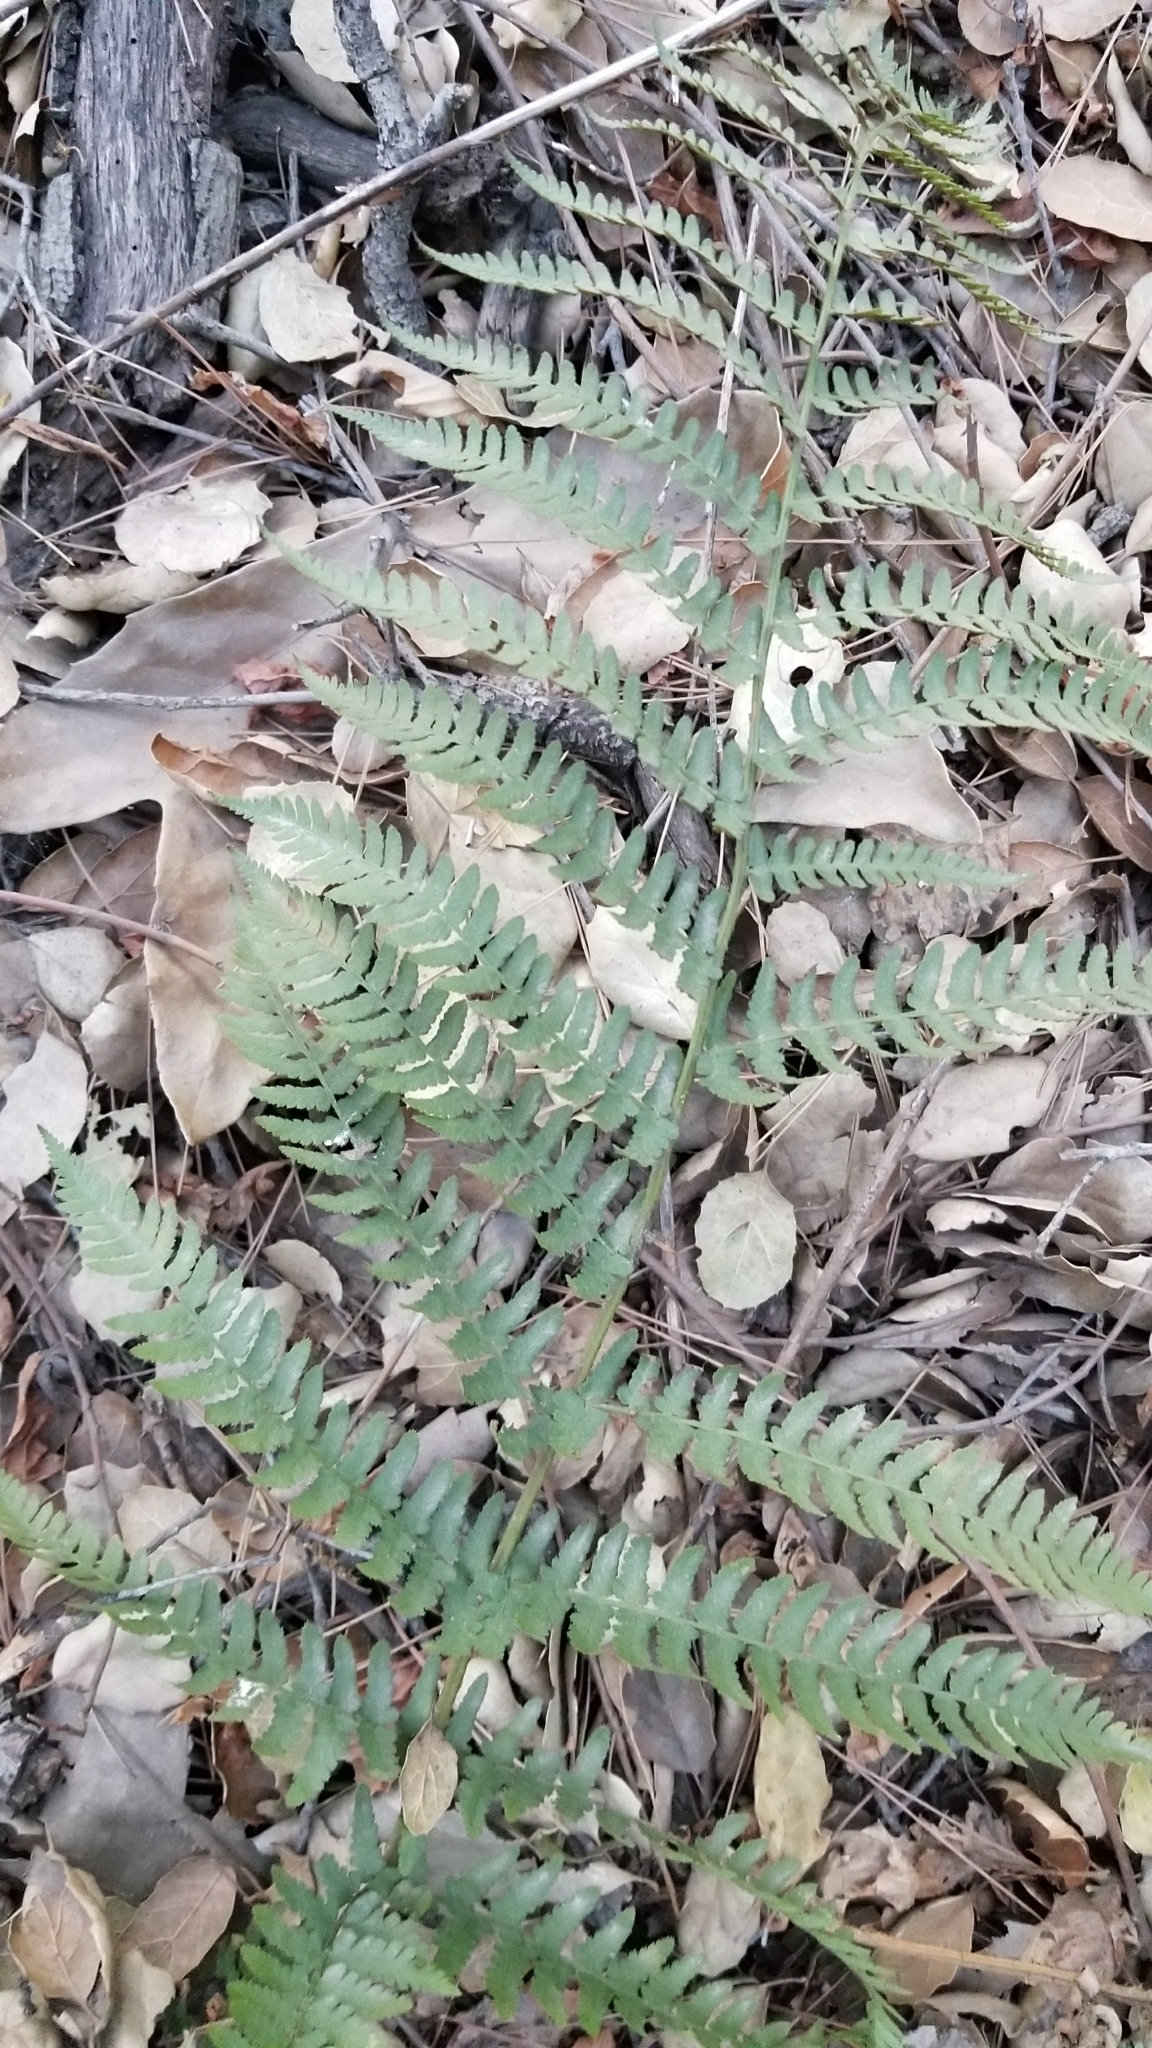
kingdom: Plantae
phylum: Tracheophyta
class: Polypodiopsida
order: Polypodiales
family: Dryopteridaceae
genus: Dryopteris
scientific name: Dryopteris arguta
